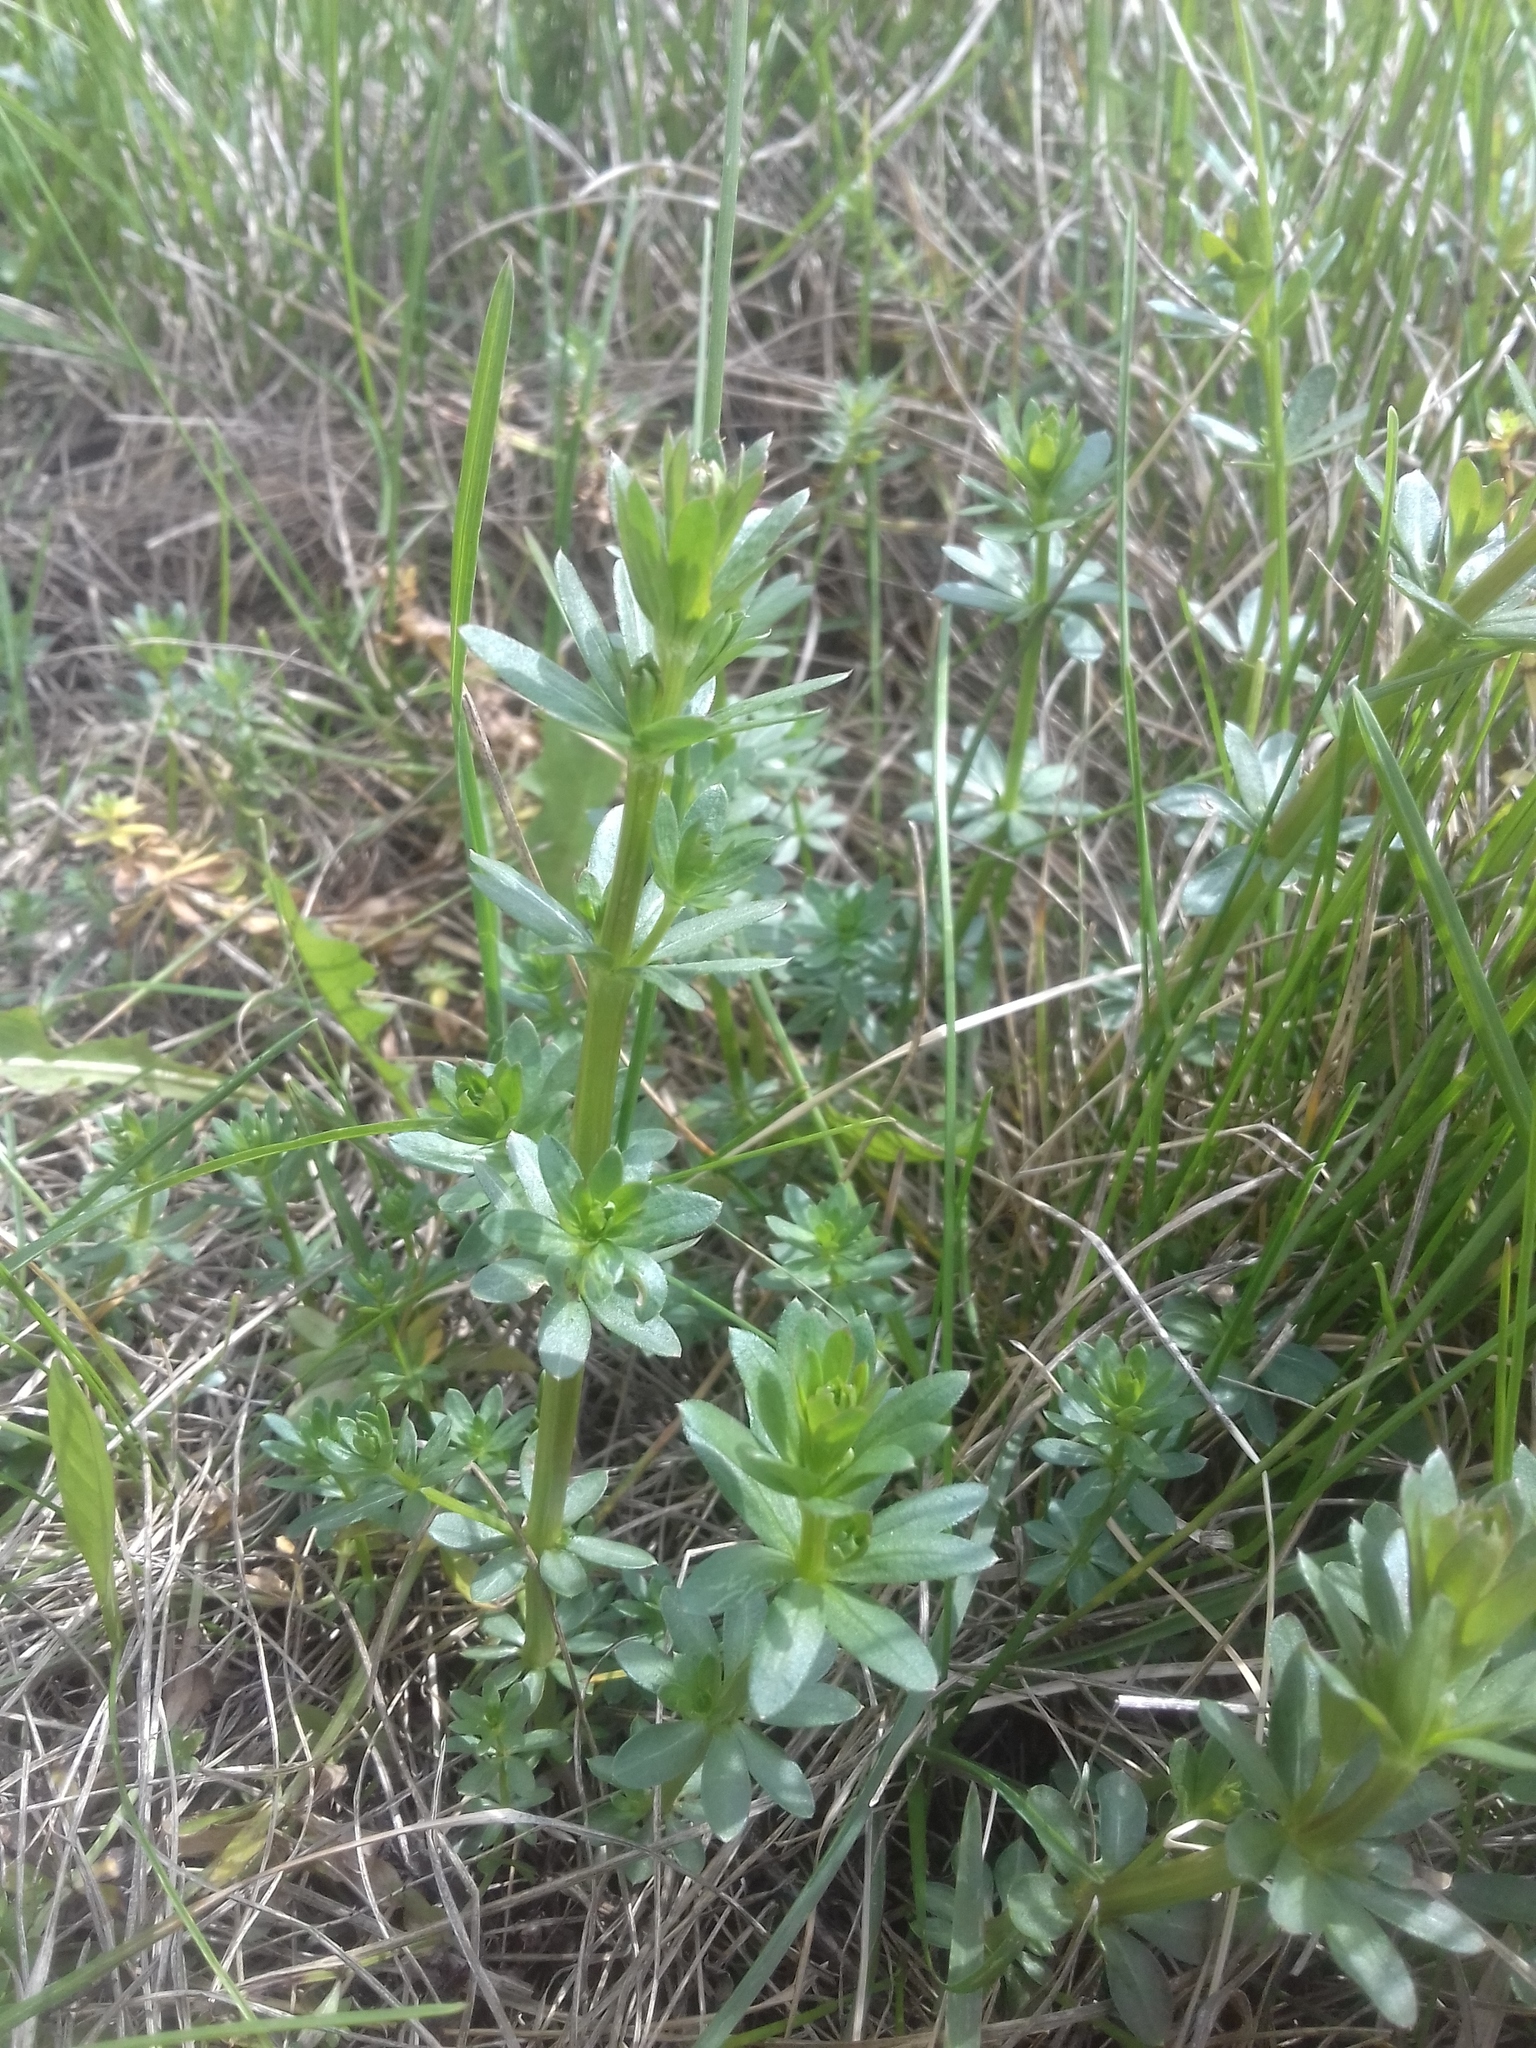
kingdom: Plantae
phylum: Tracheophyta
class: Magnoliopsida
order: Gentianales
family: Rubiaceae
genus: Galium
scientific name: Galium mollugo
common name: Hedge bedstraw
